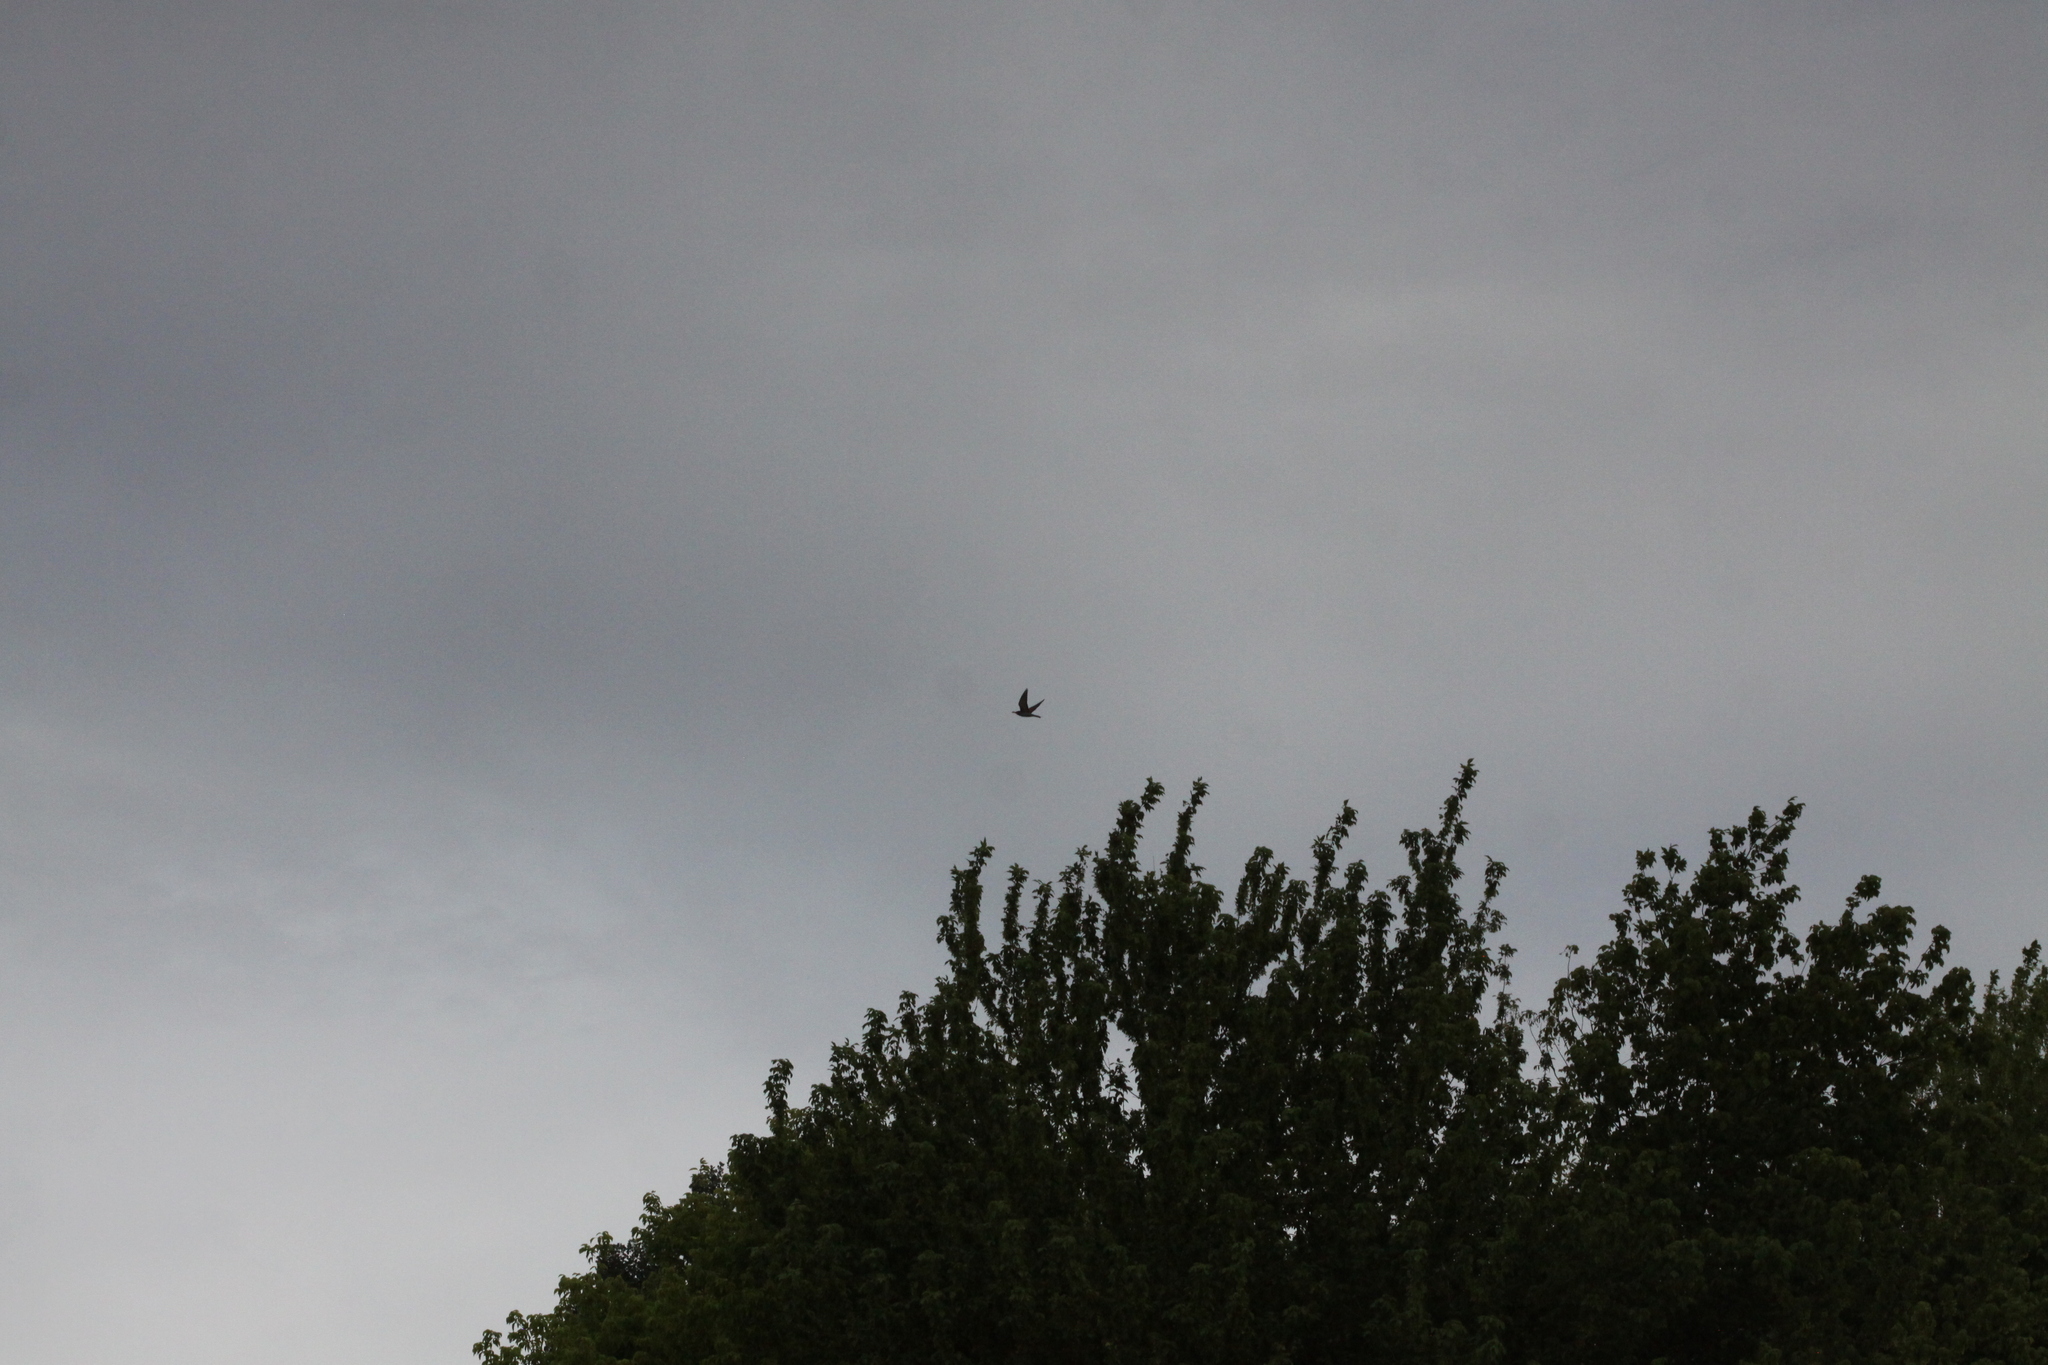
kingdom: Animalia
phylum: Chordata
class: Aves
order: Coraciiformes
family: Meropidae
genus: Merops
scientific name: Merops apiaster
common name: European bee-eater
